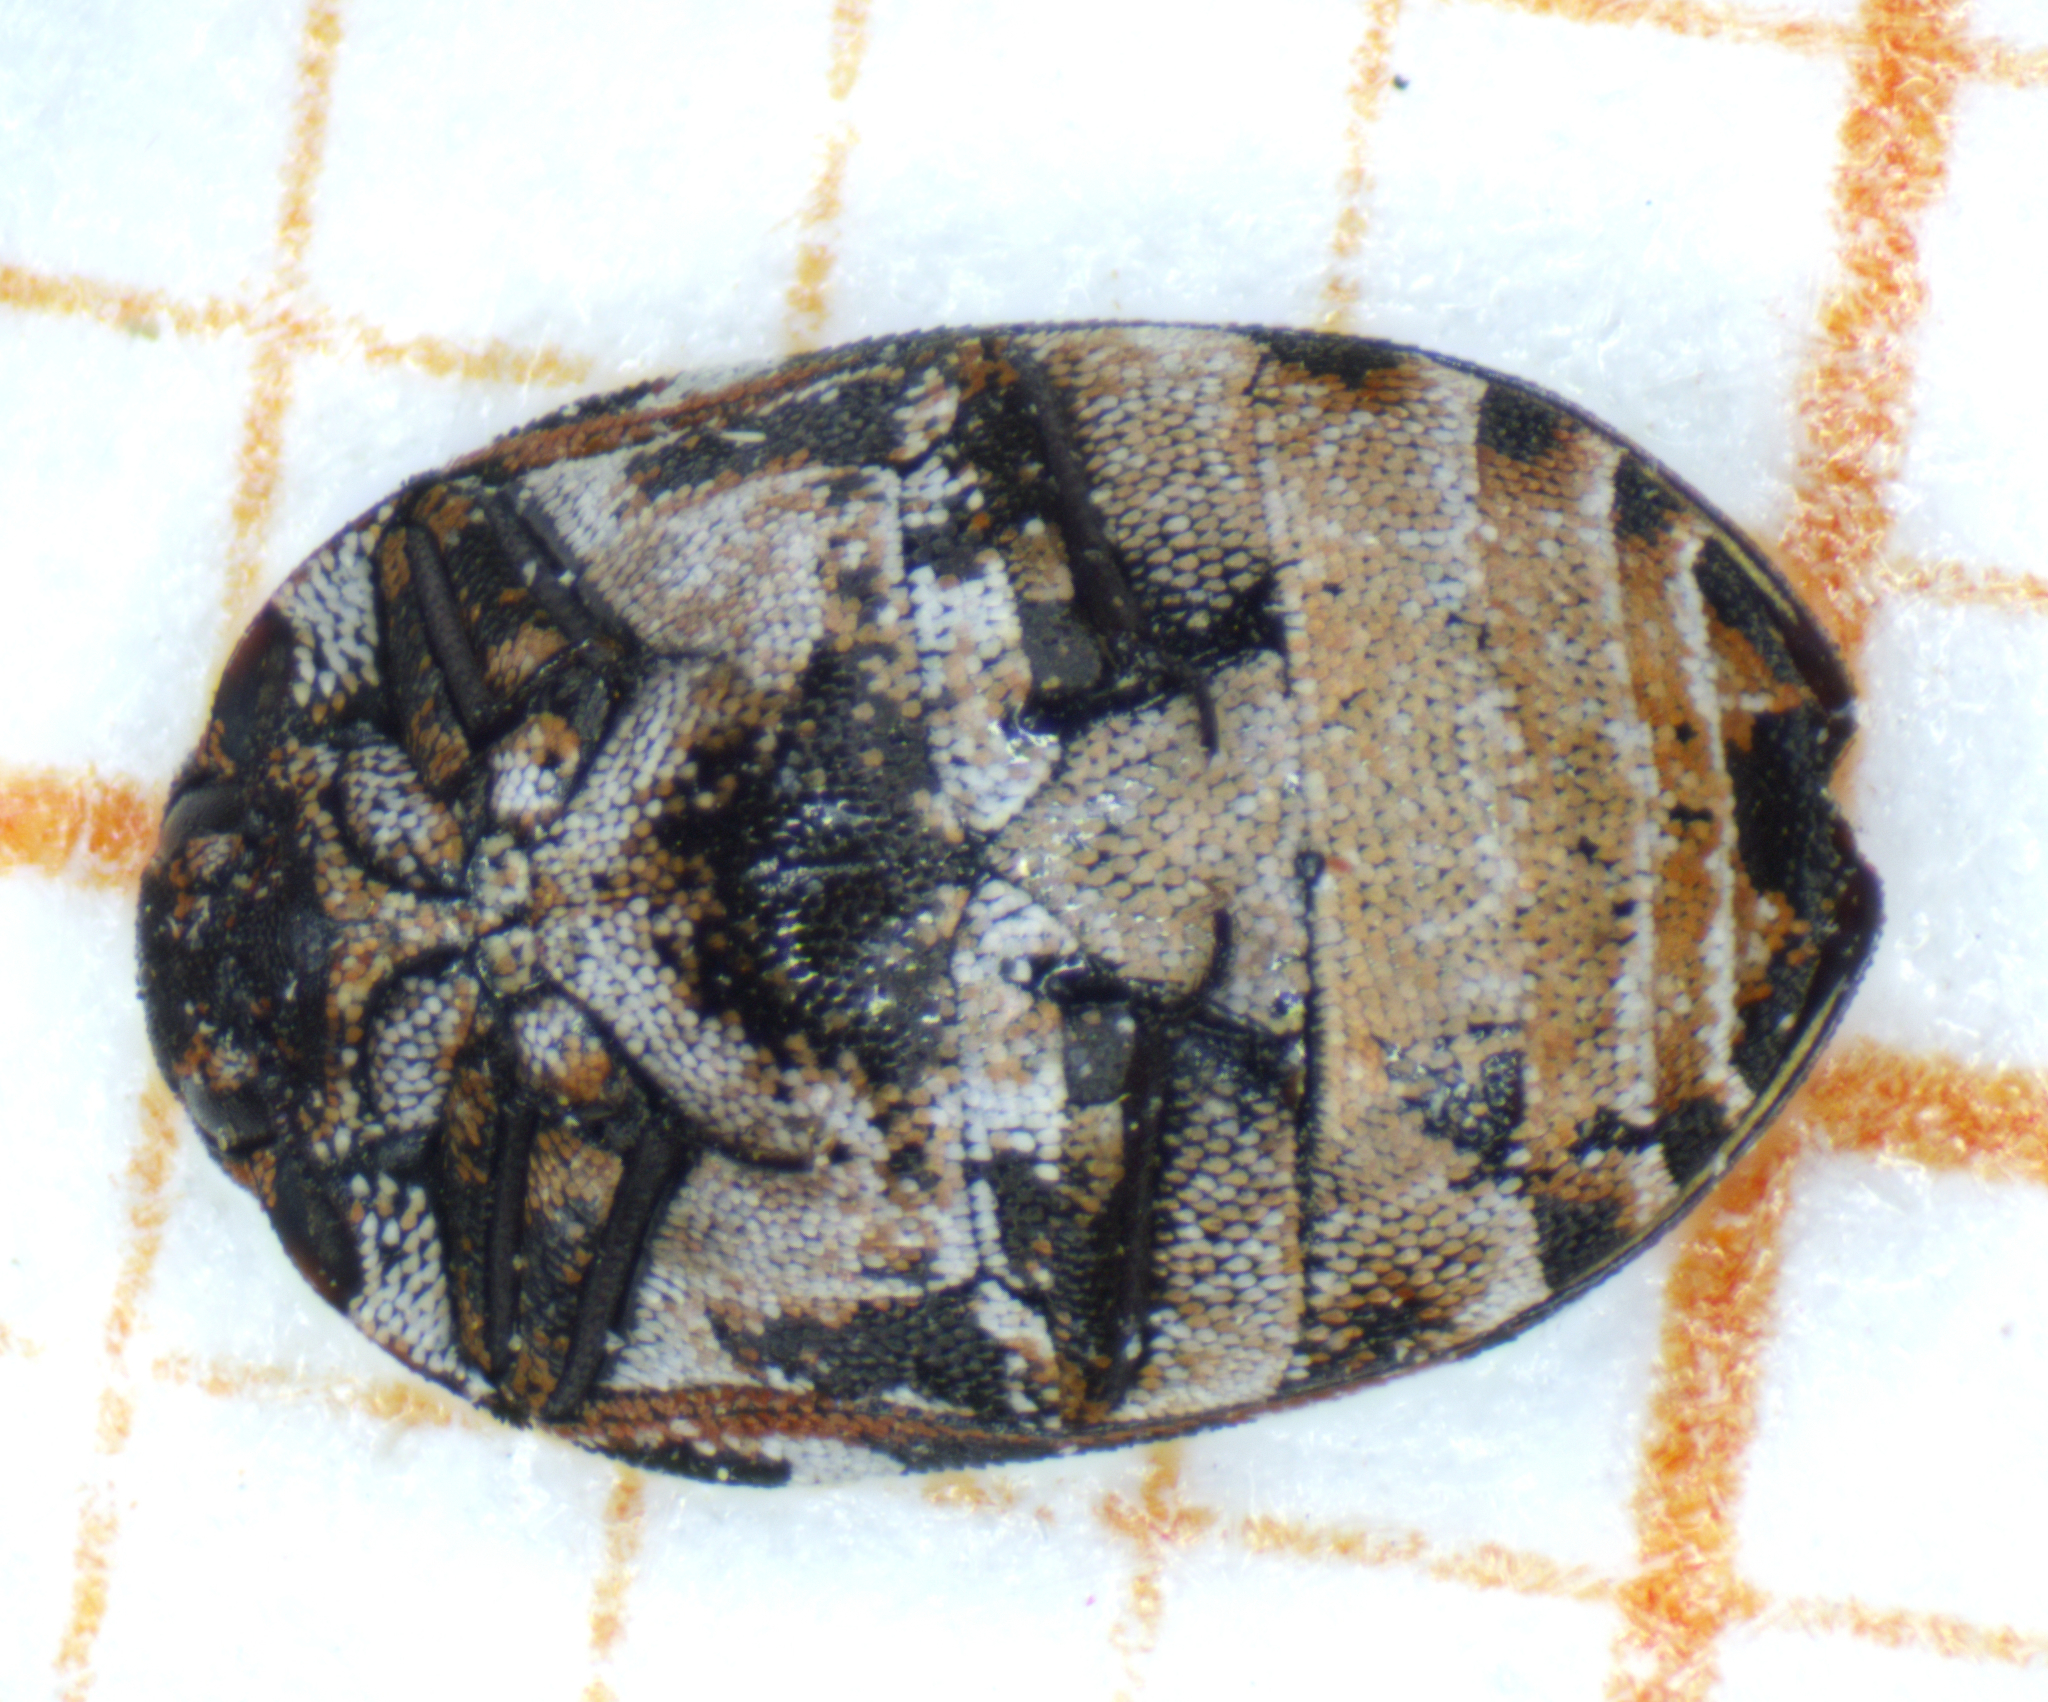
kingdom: Animalia
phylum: Arthropoda
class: Insecta
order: Coleoptera
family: Dermestidae
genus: Anthrenus
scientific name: Anthrenus scrophulariae
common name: Buffalo carpet beetle
